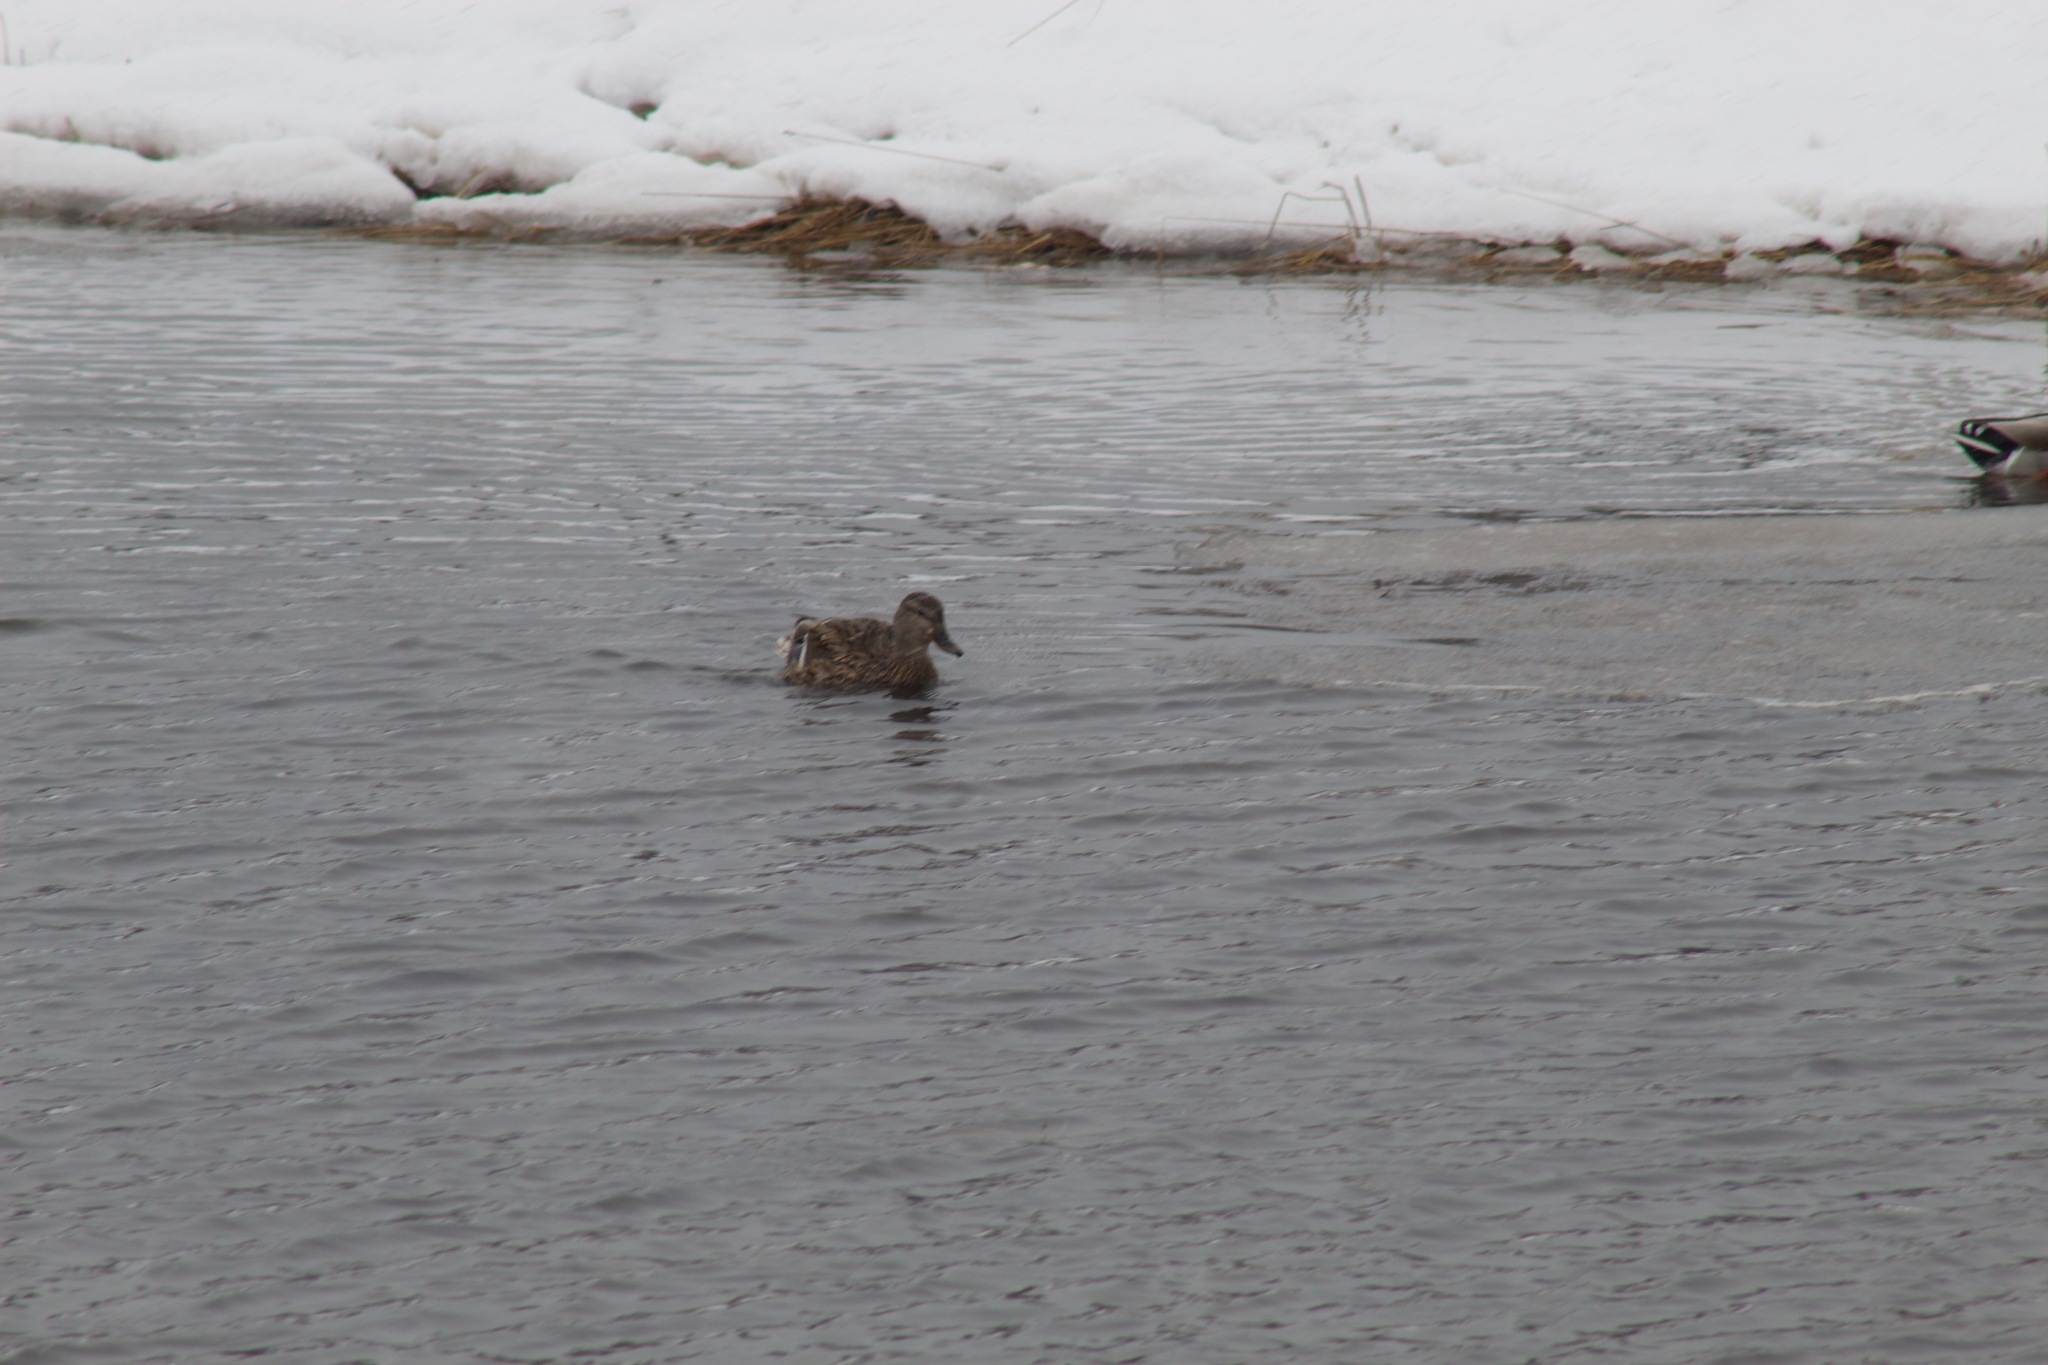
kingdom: Animalia
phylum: Chordata
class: Aves
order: Anseriformes
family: Anatidae
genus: Anas
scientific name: Anas platyrhynchos
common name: Mallard
